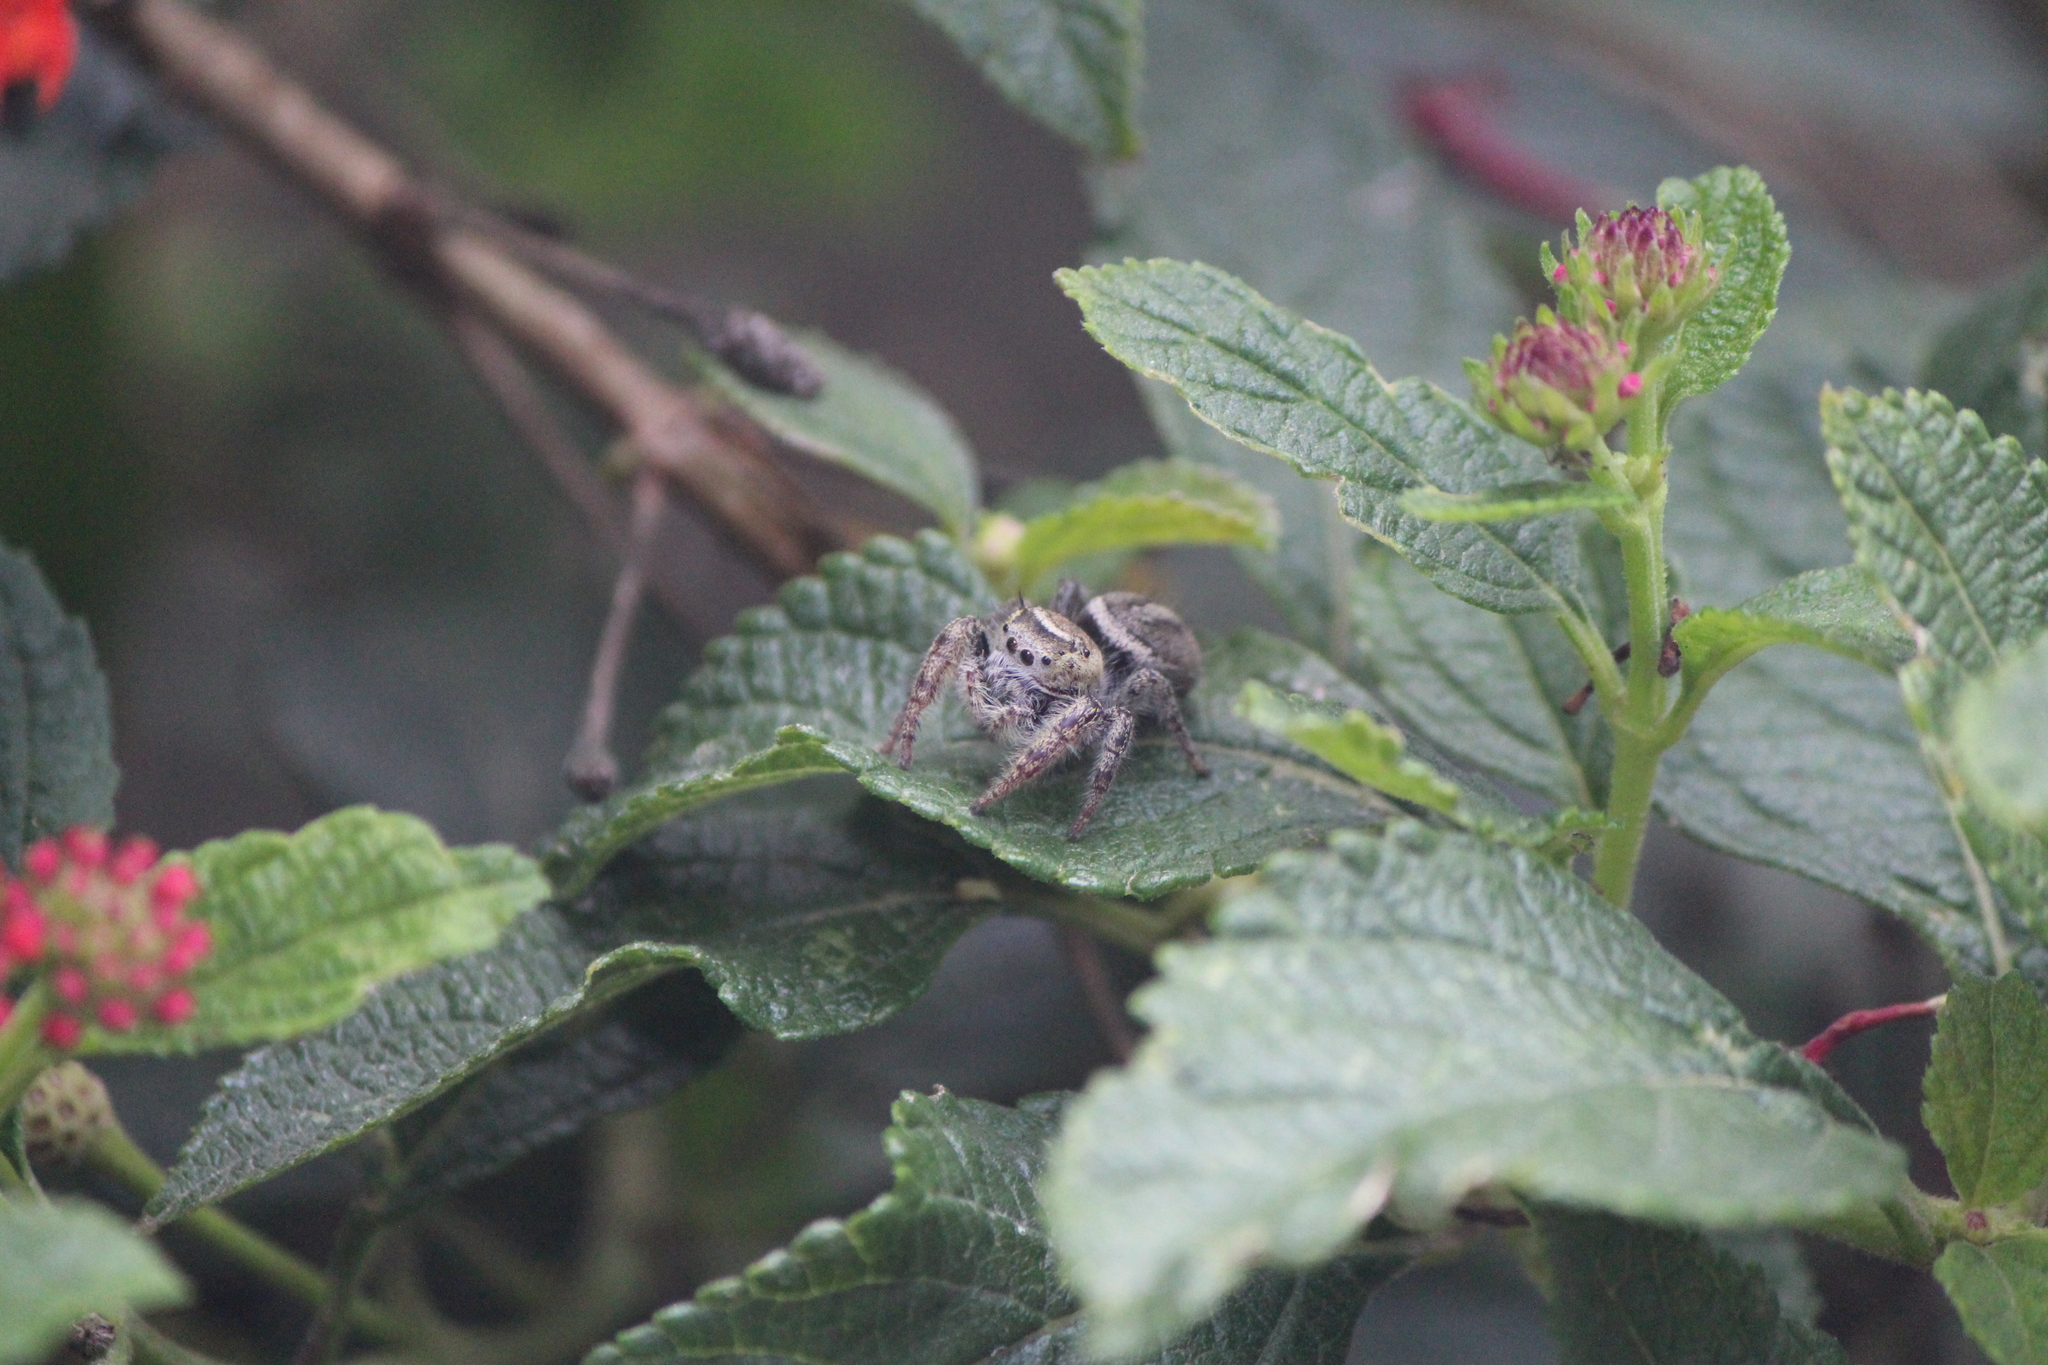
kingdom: Animalia
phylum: Arthropoda
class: Arachnida
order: Araneae
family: Salticidae
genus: Phidippus
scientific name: Phidippus arizonensis
